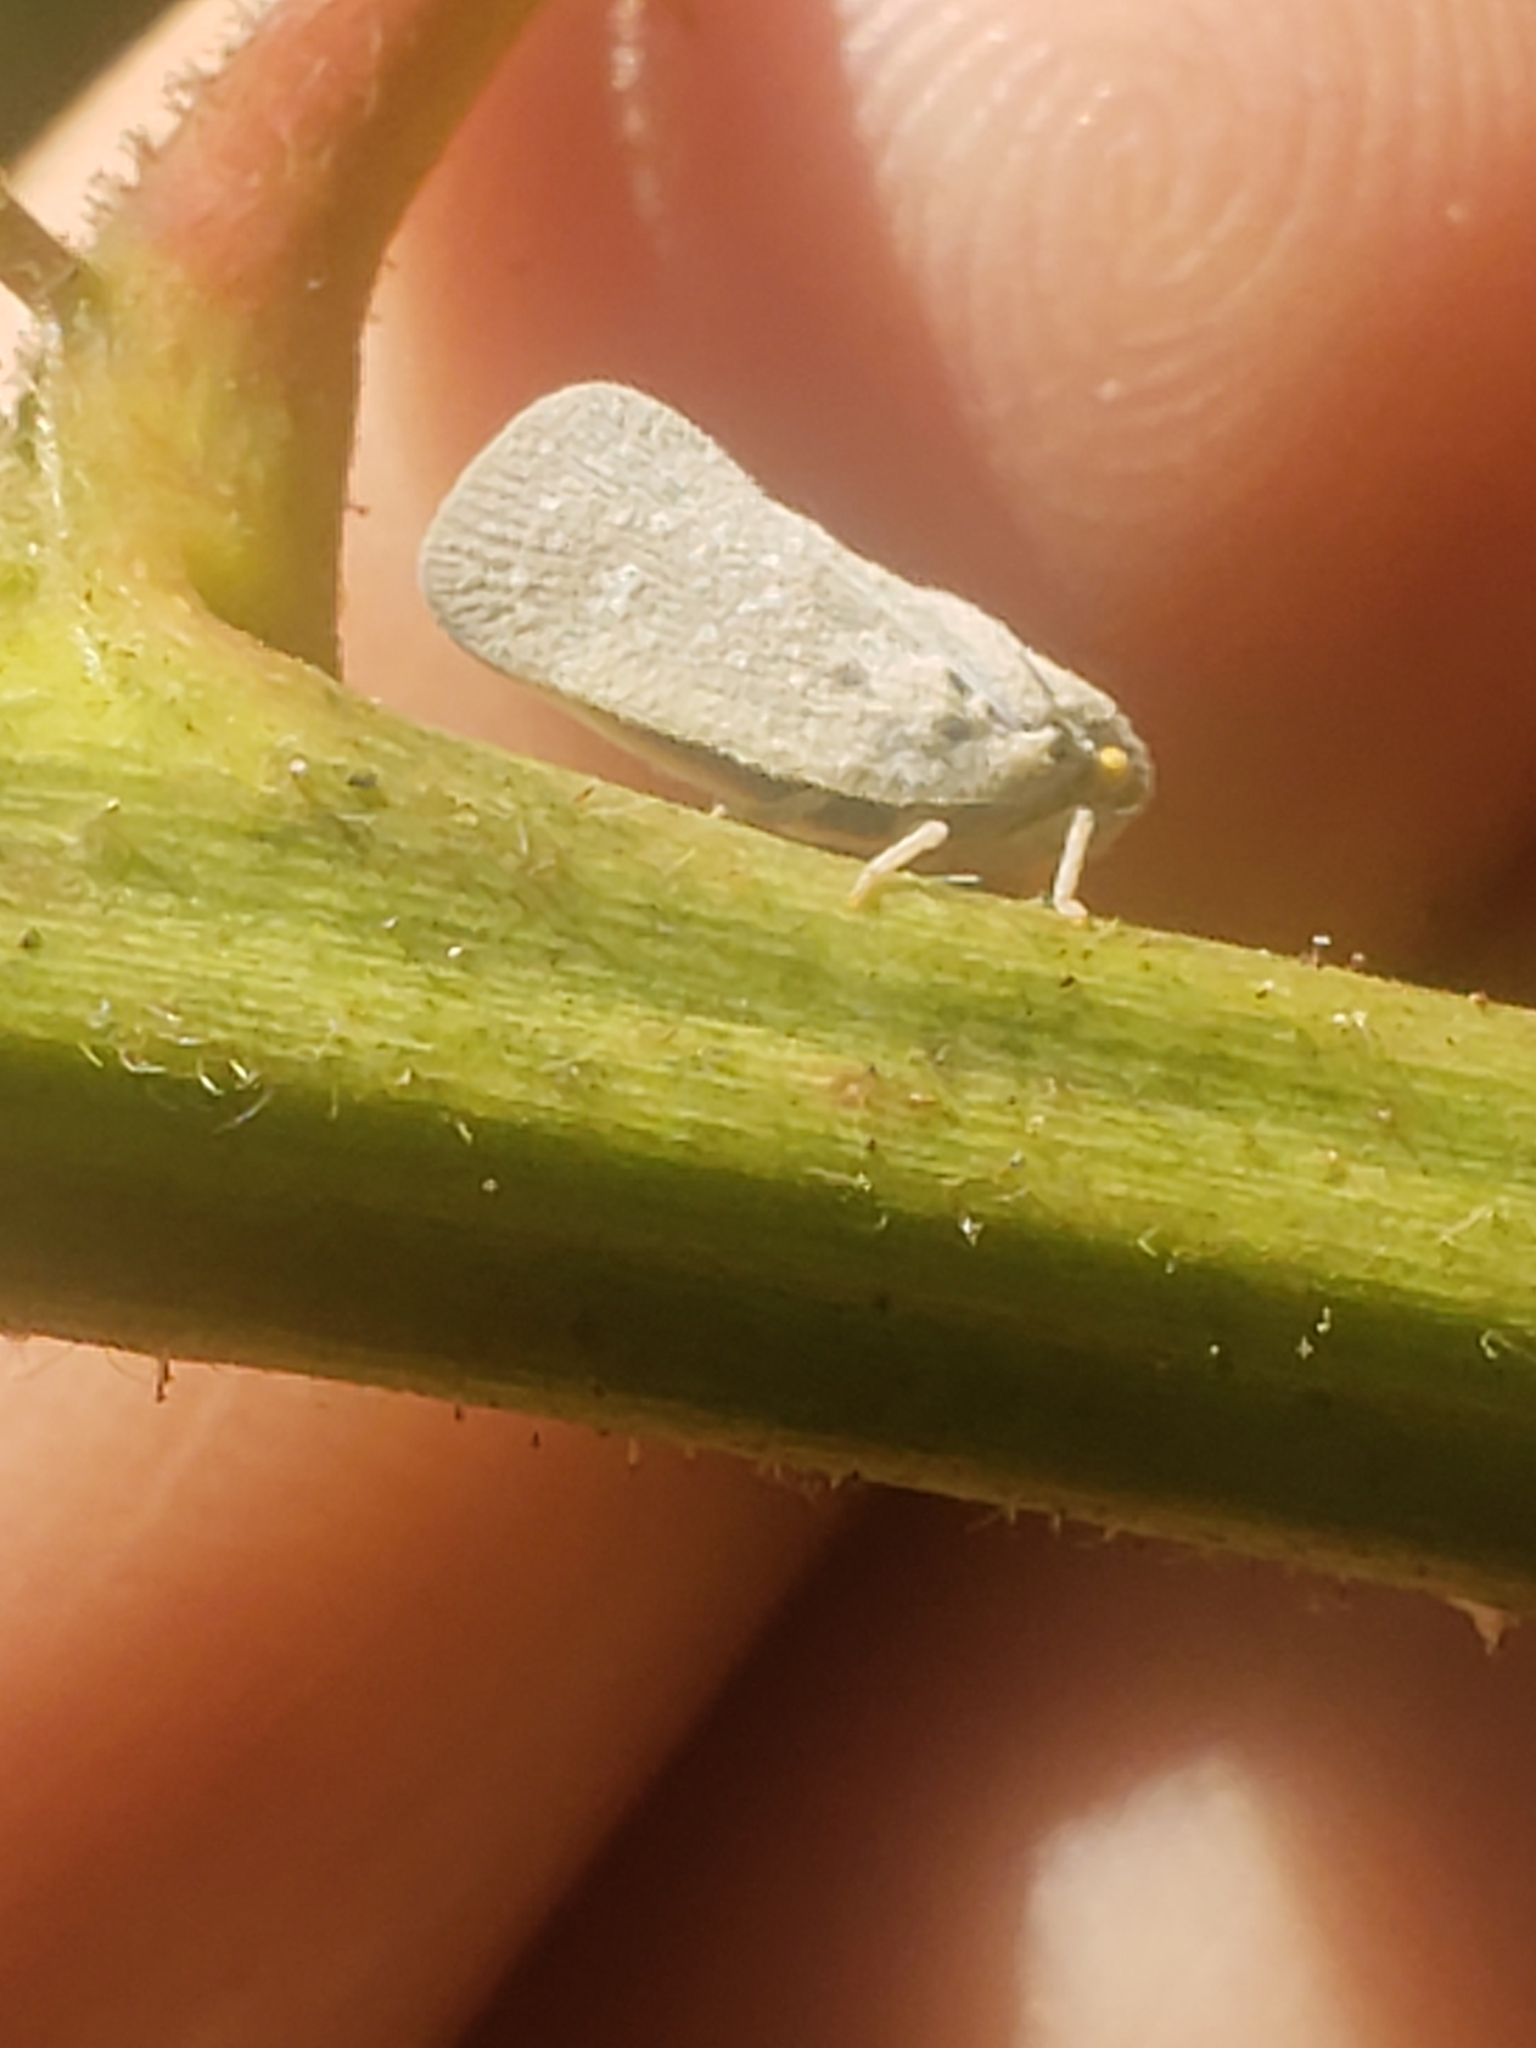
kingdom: Animalia
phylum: Arthropoda
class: Insecta
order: Hemiptera
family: Flatidae
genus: Metcalfa
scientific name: Metcalfa pruinosa
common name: Citrus flatid planthopper
